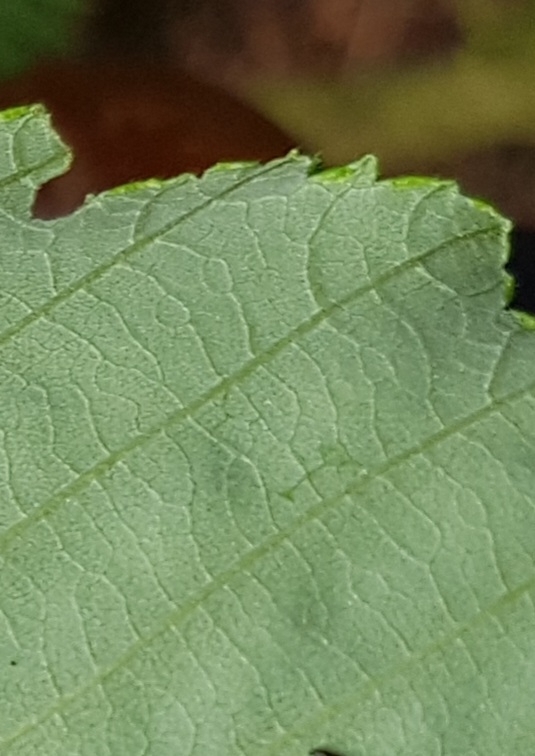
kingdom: Plantae
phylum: Tracheophyta
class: Magnoliopsida
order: Fagales
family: Betulaceae
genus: Alnus
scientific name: Alnus rubra
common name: Red alder
